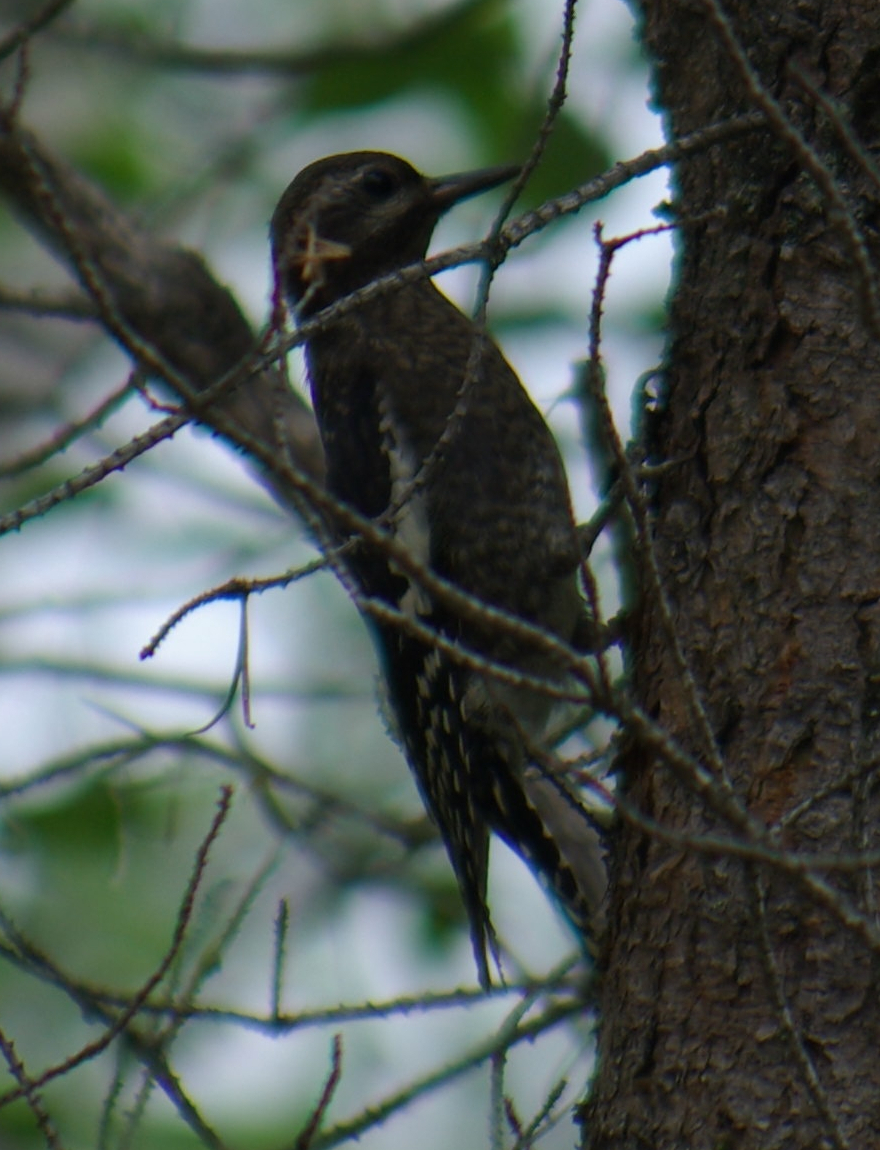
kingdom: Animalia
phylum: Chordata
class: Aves
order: Piciformes
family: Picidae
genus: Sphyrapicus
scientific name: Sphyrapicus varius
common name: Yellow-bellied sapsucker
